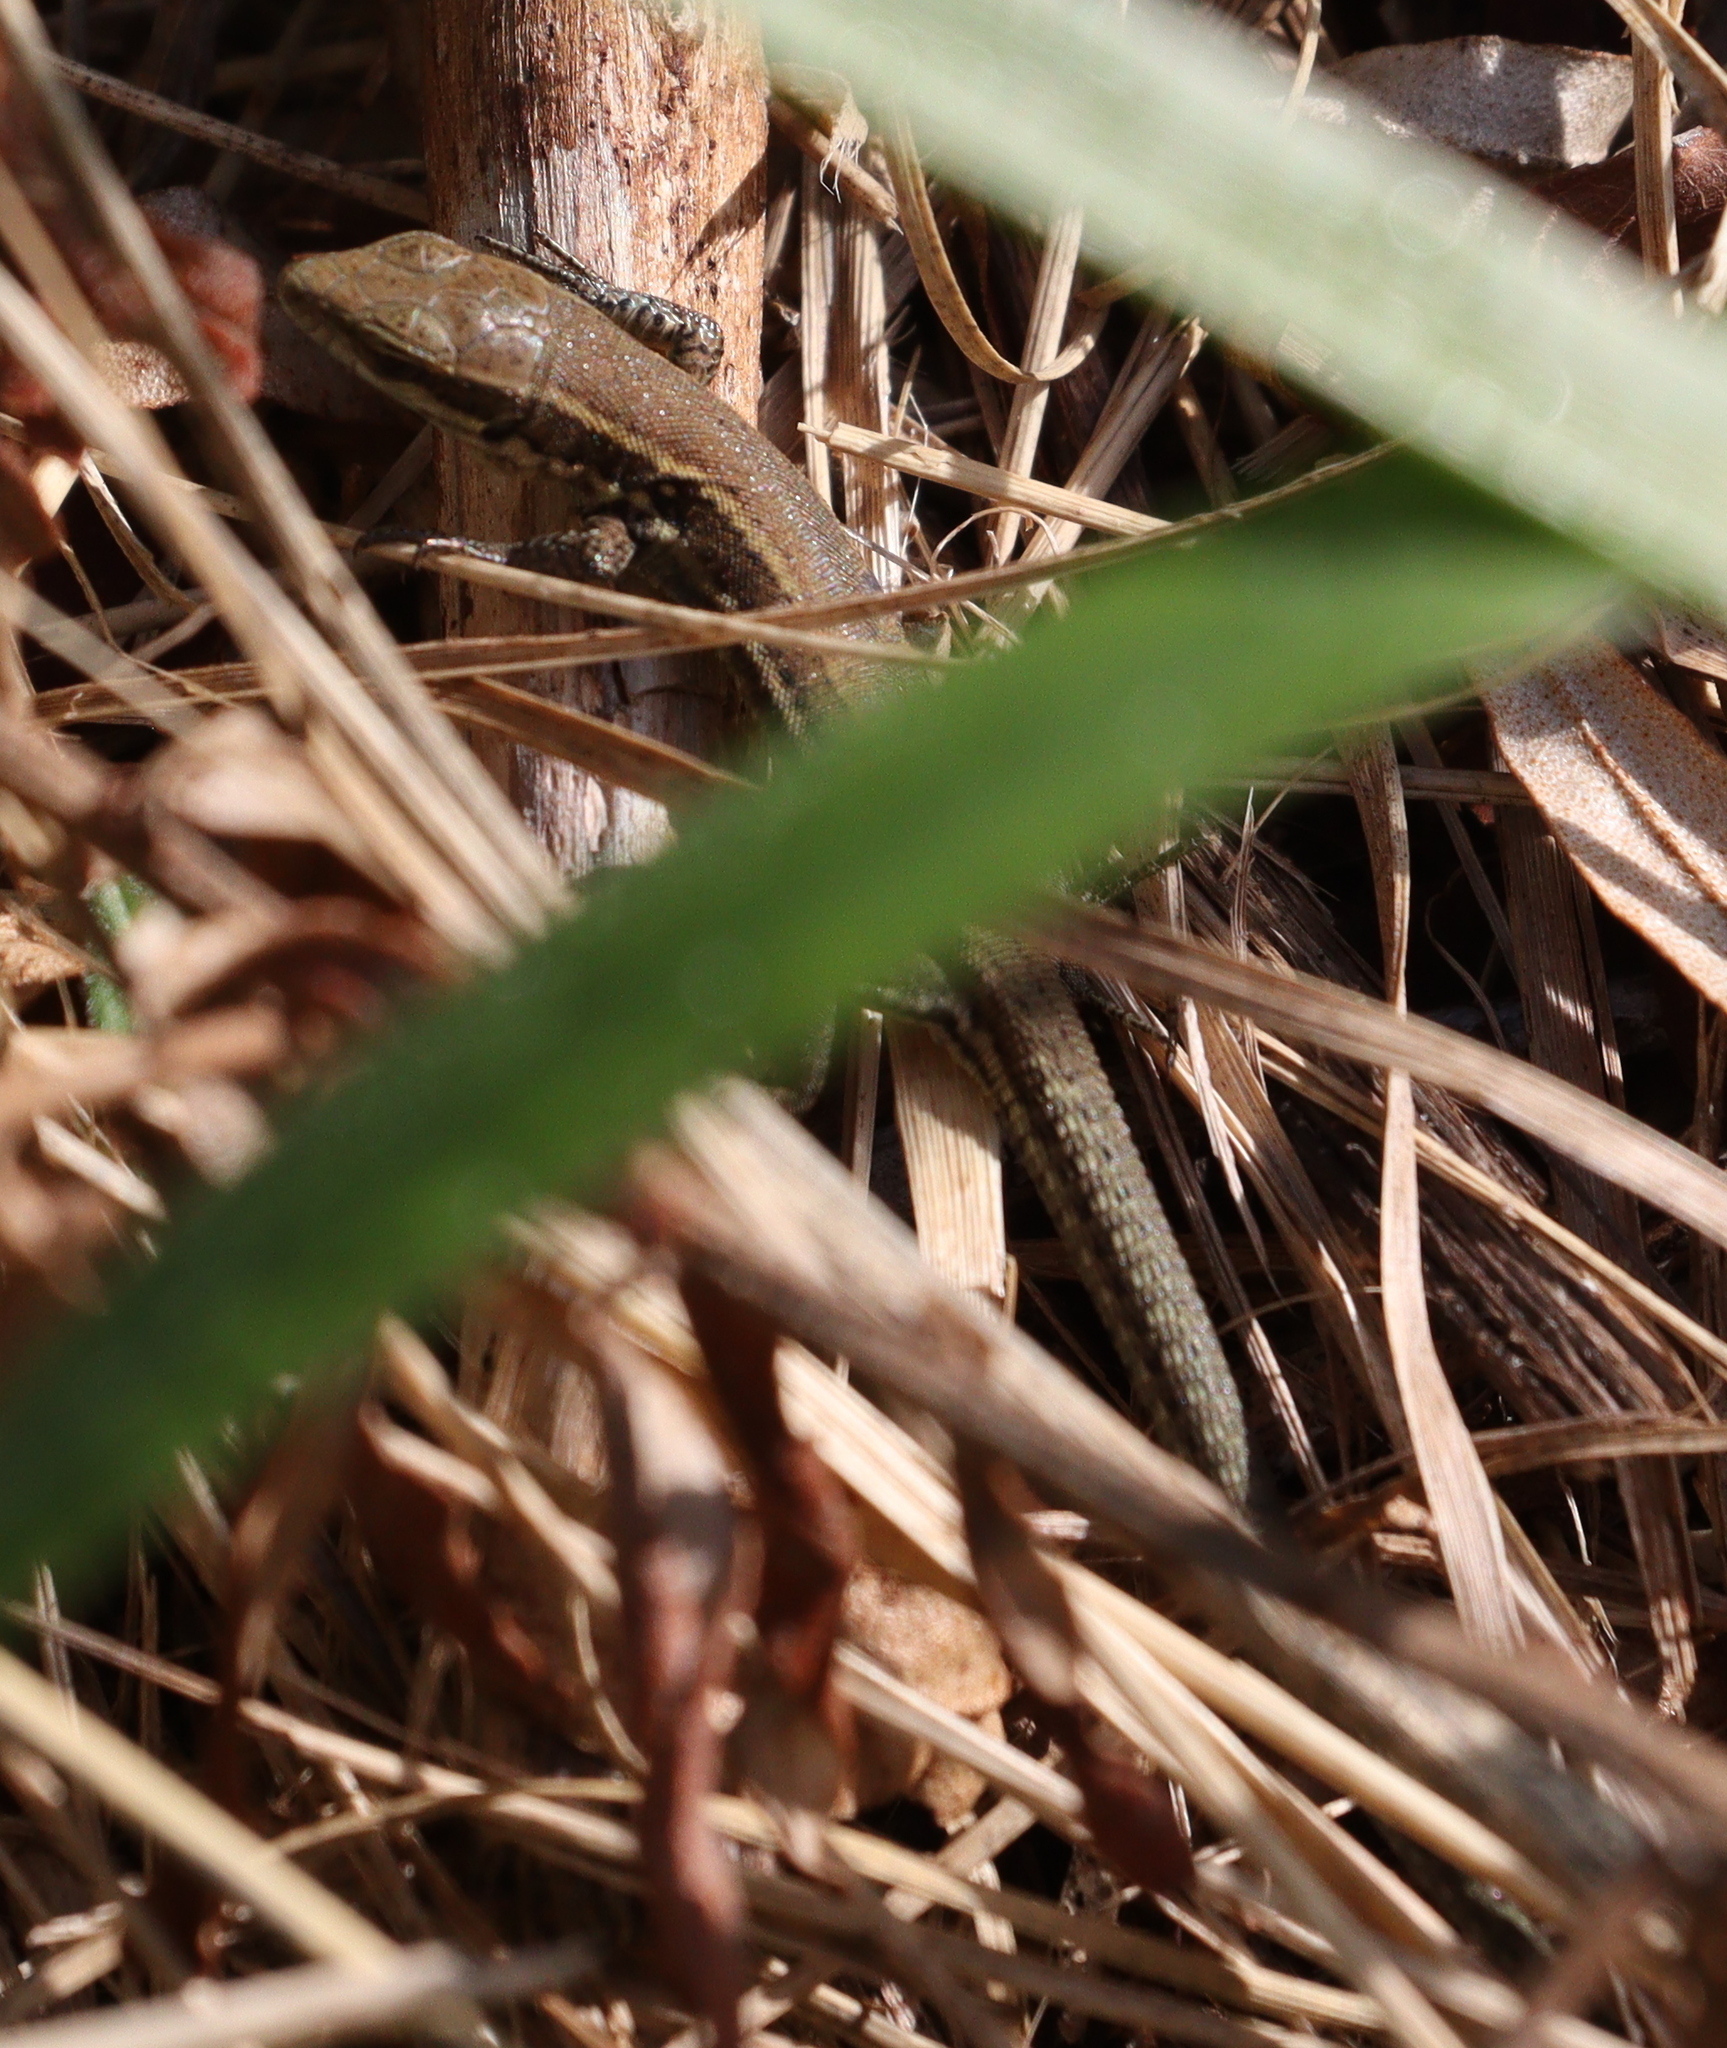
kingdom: Animalia
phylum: Chordata
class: Squamata
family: Lacertidae
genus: Podarcis
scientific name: Podarcis muralis
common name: Common wall lizard
